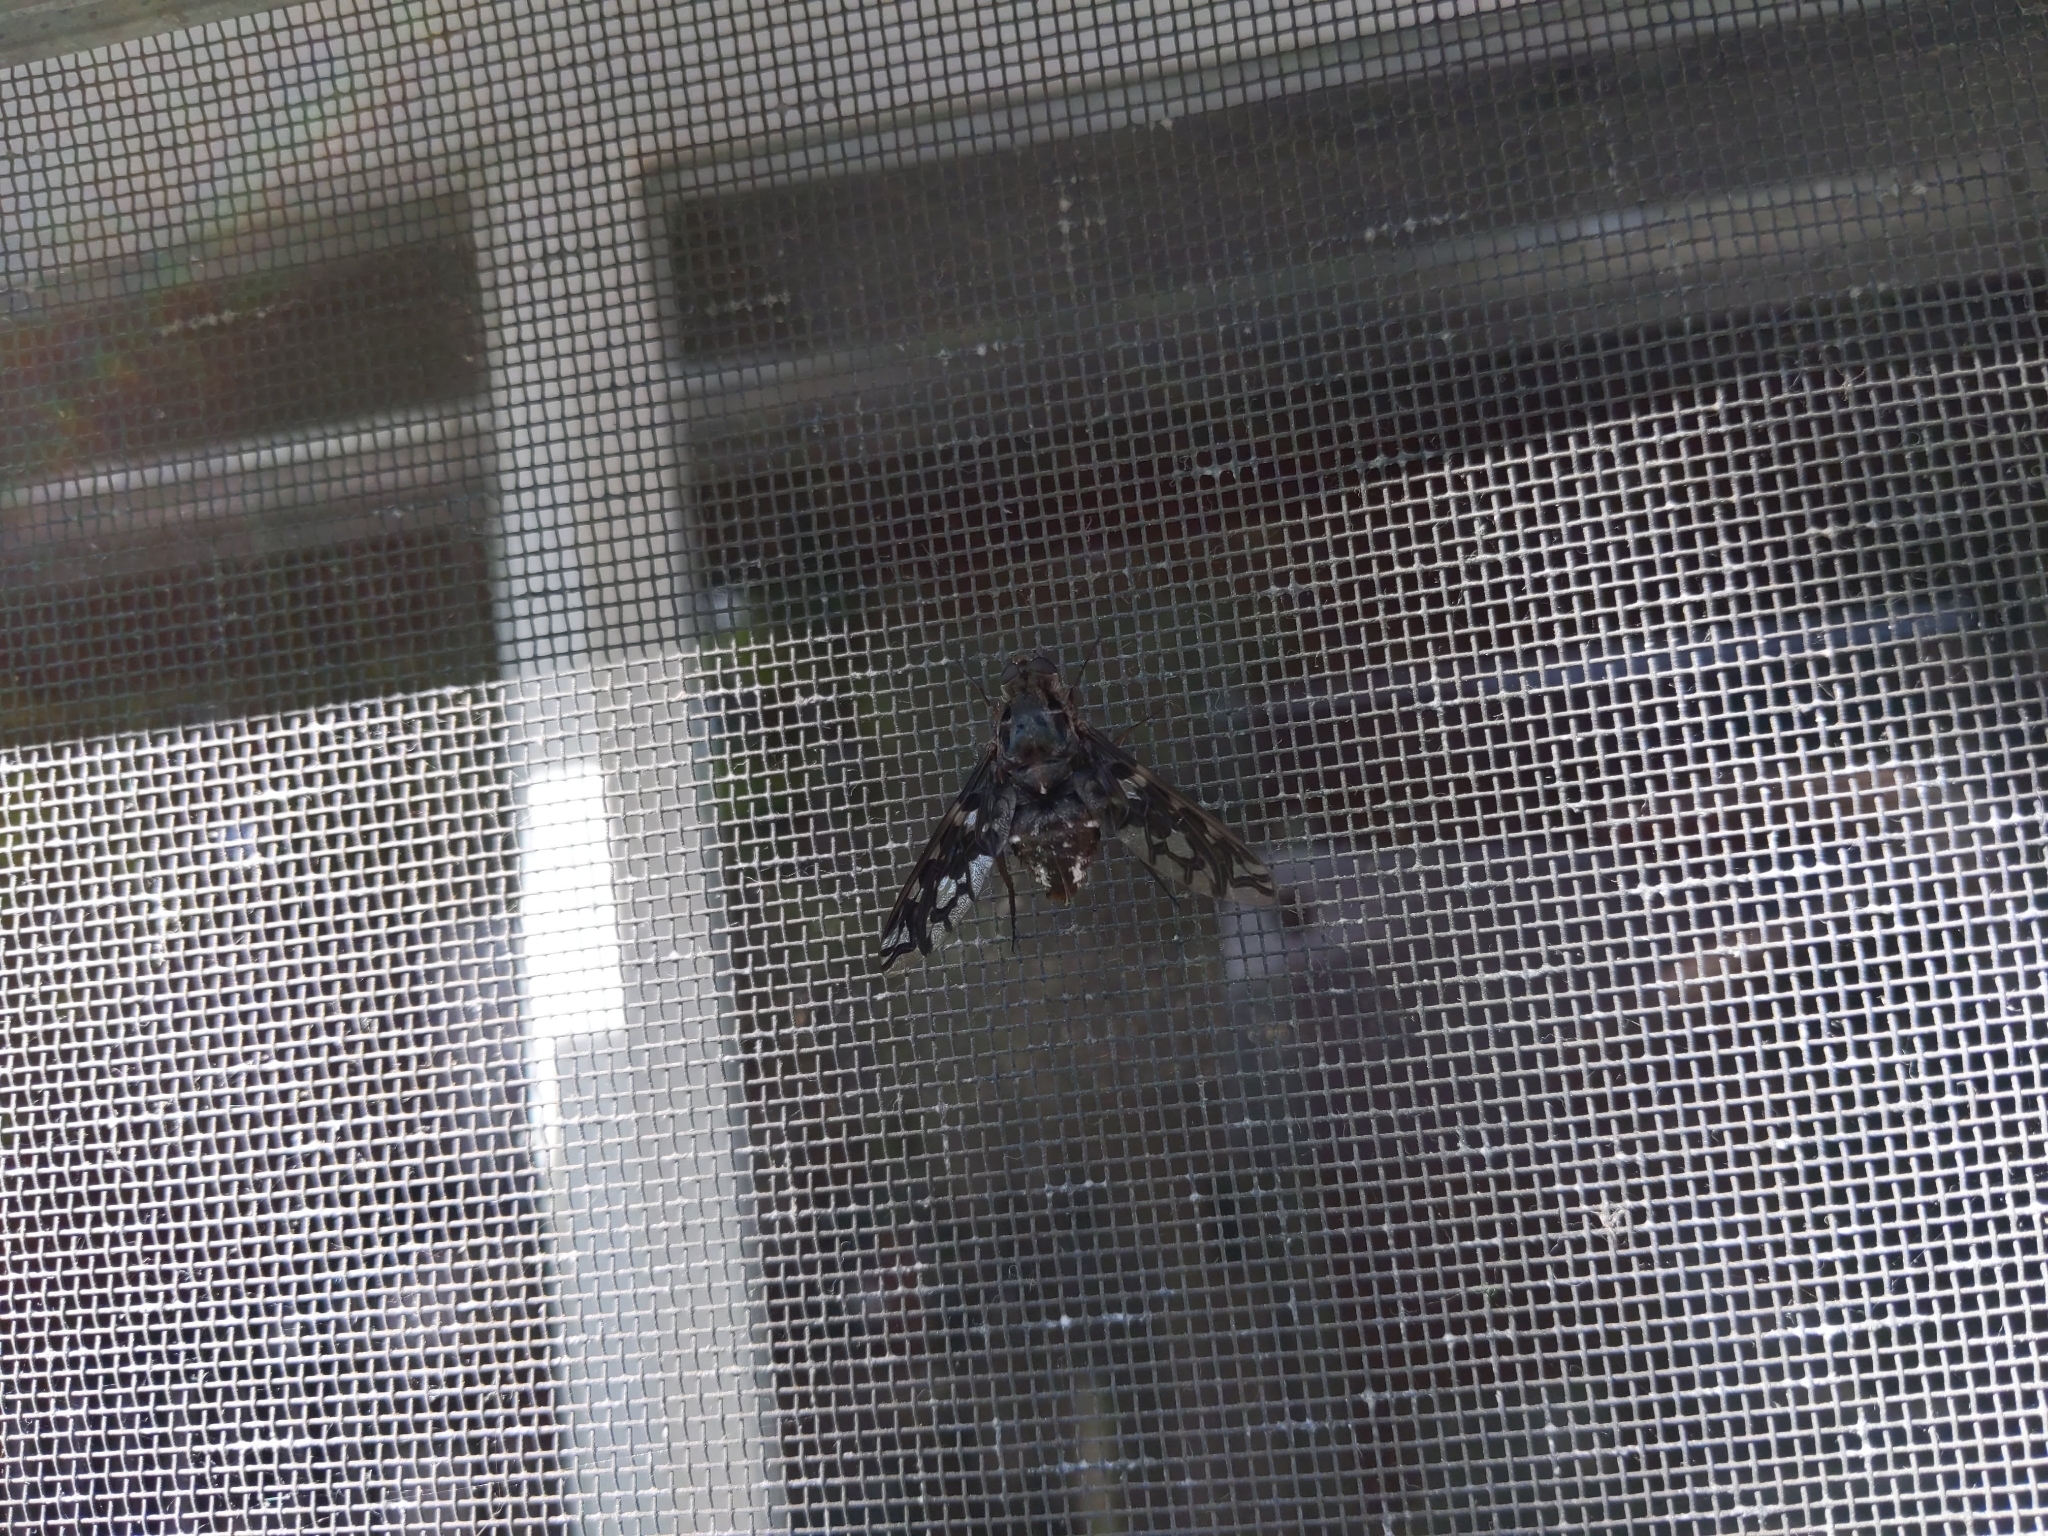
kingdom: Animalia
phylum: Arthropoda
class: Insecta
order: Diptera
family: Bombyliidae
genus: Xenox
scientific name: Xenox tigrinus
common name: Tiger bee fly
